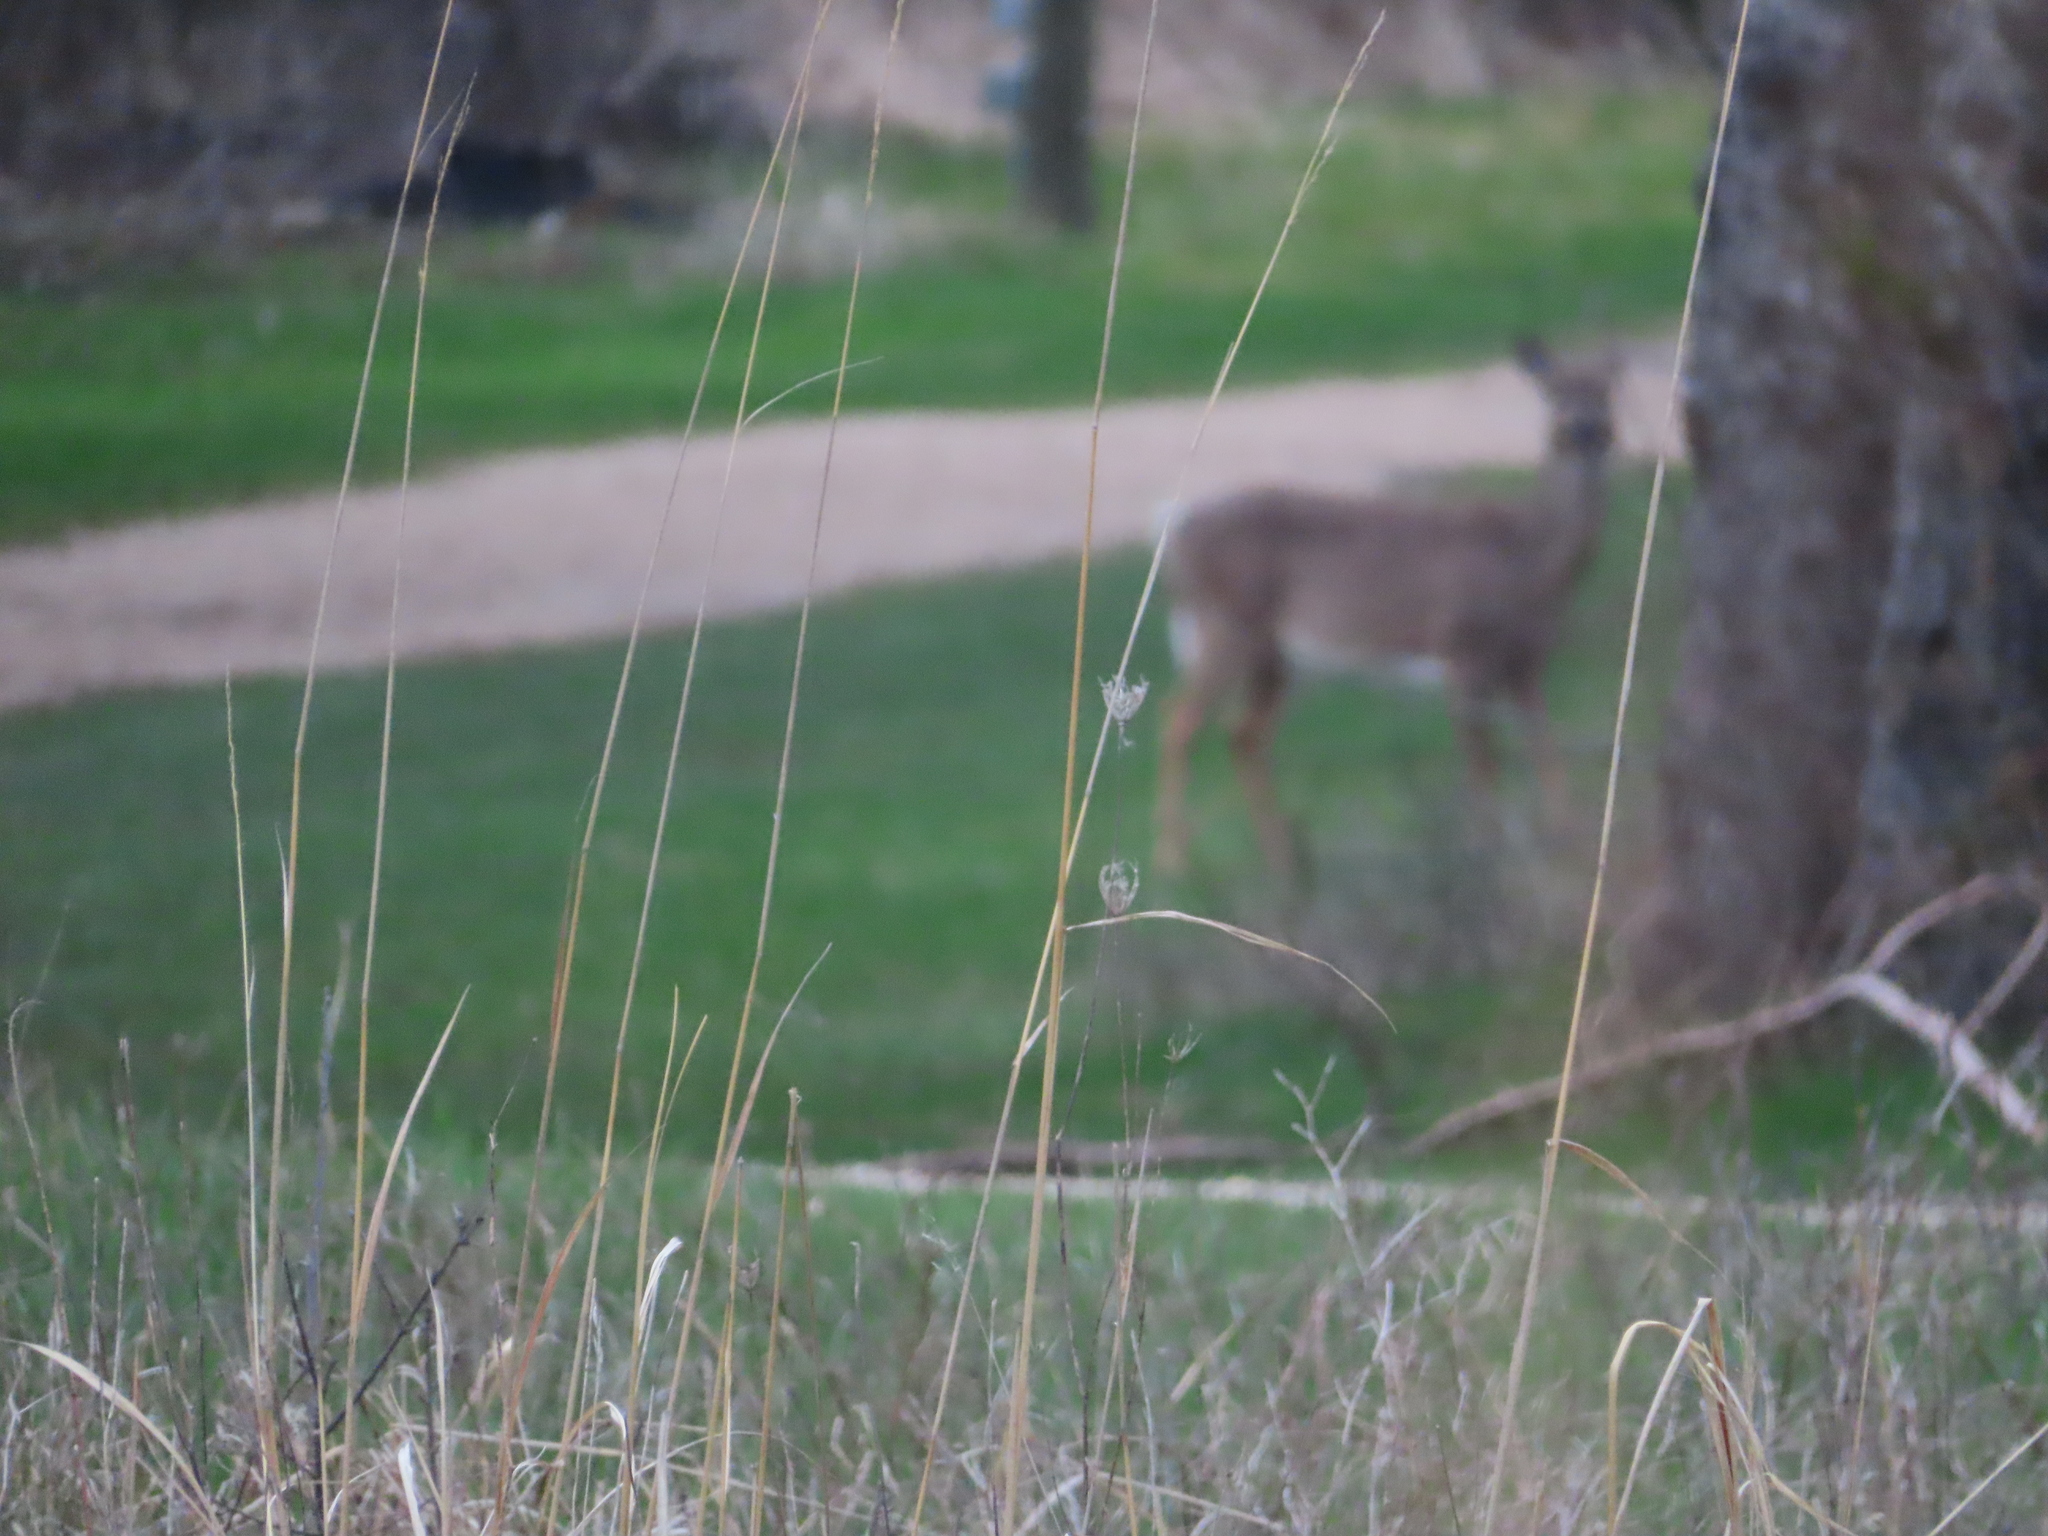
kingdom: Animalia
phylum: Chordata
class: Mammalia
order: Artiodactyla
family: Cervidae
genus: Odocoileus
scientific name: Odocoileus virginianus
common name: White-tailed deer
